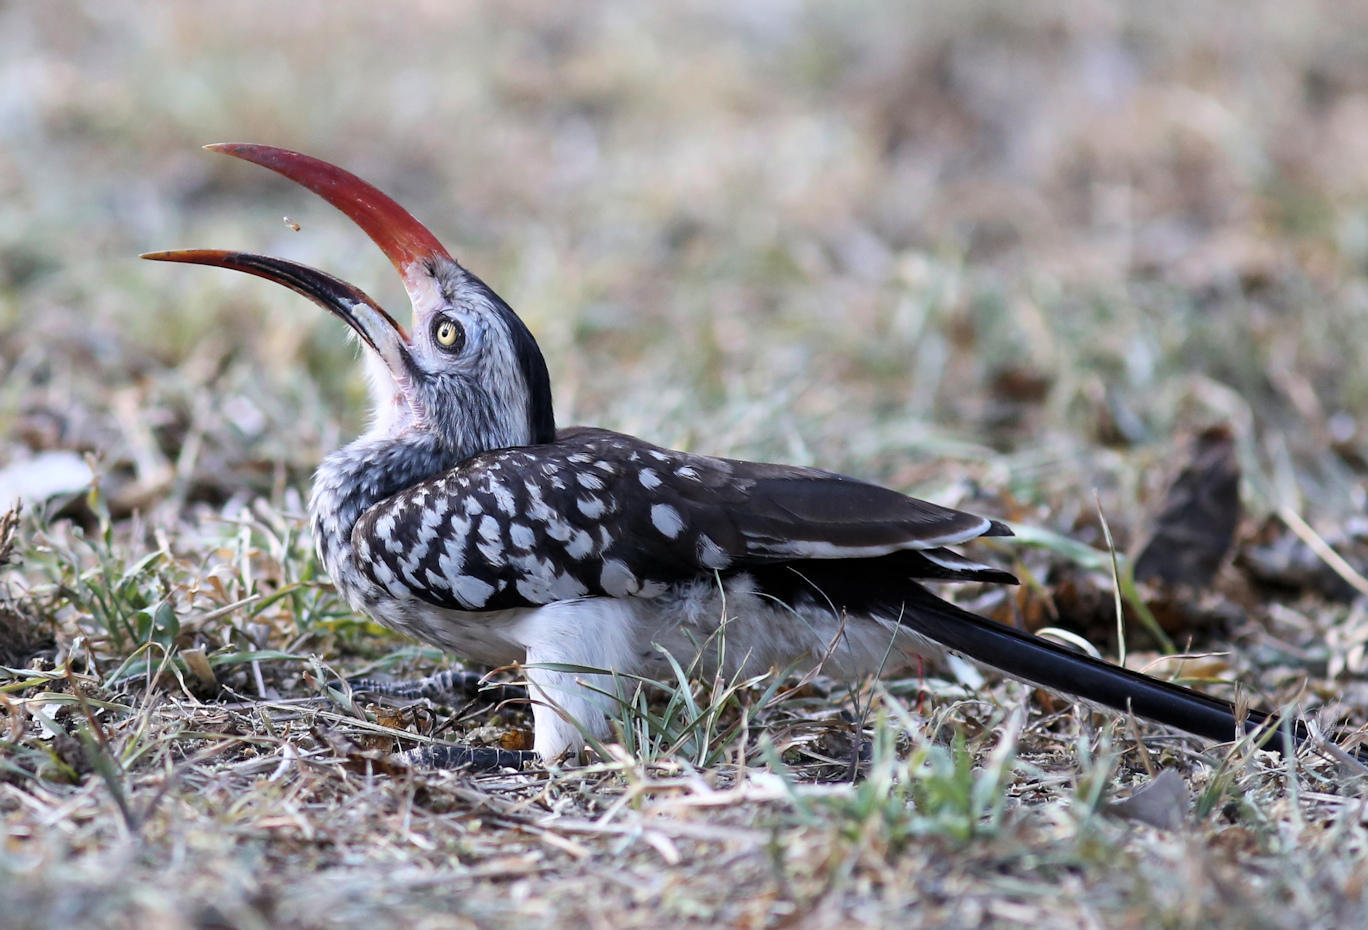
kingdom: Animalia
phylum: Chordata
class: Aves
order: Bucerotiformes
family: Bucerotidae
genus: Tockus
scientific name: Tockus rufirostris
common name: Southern red-billed hornbill
